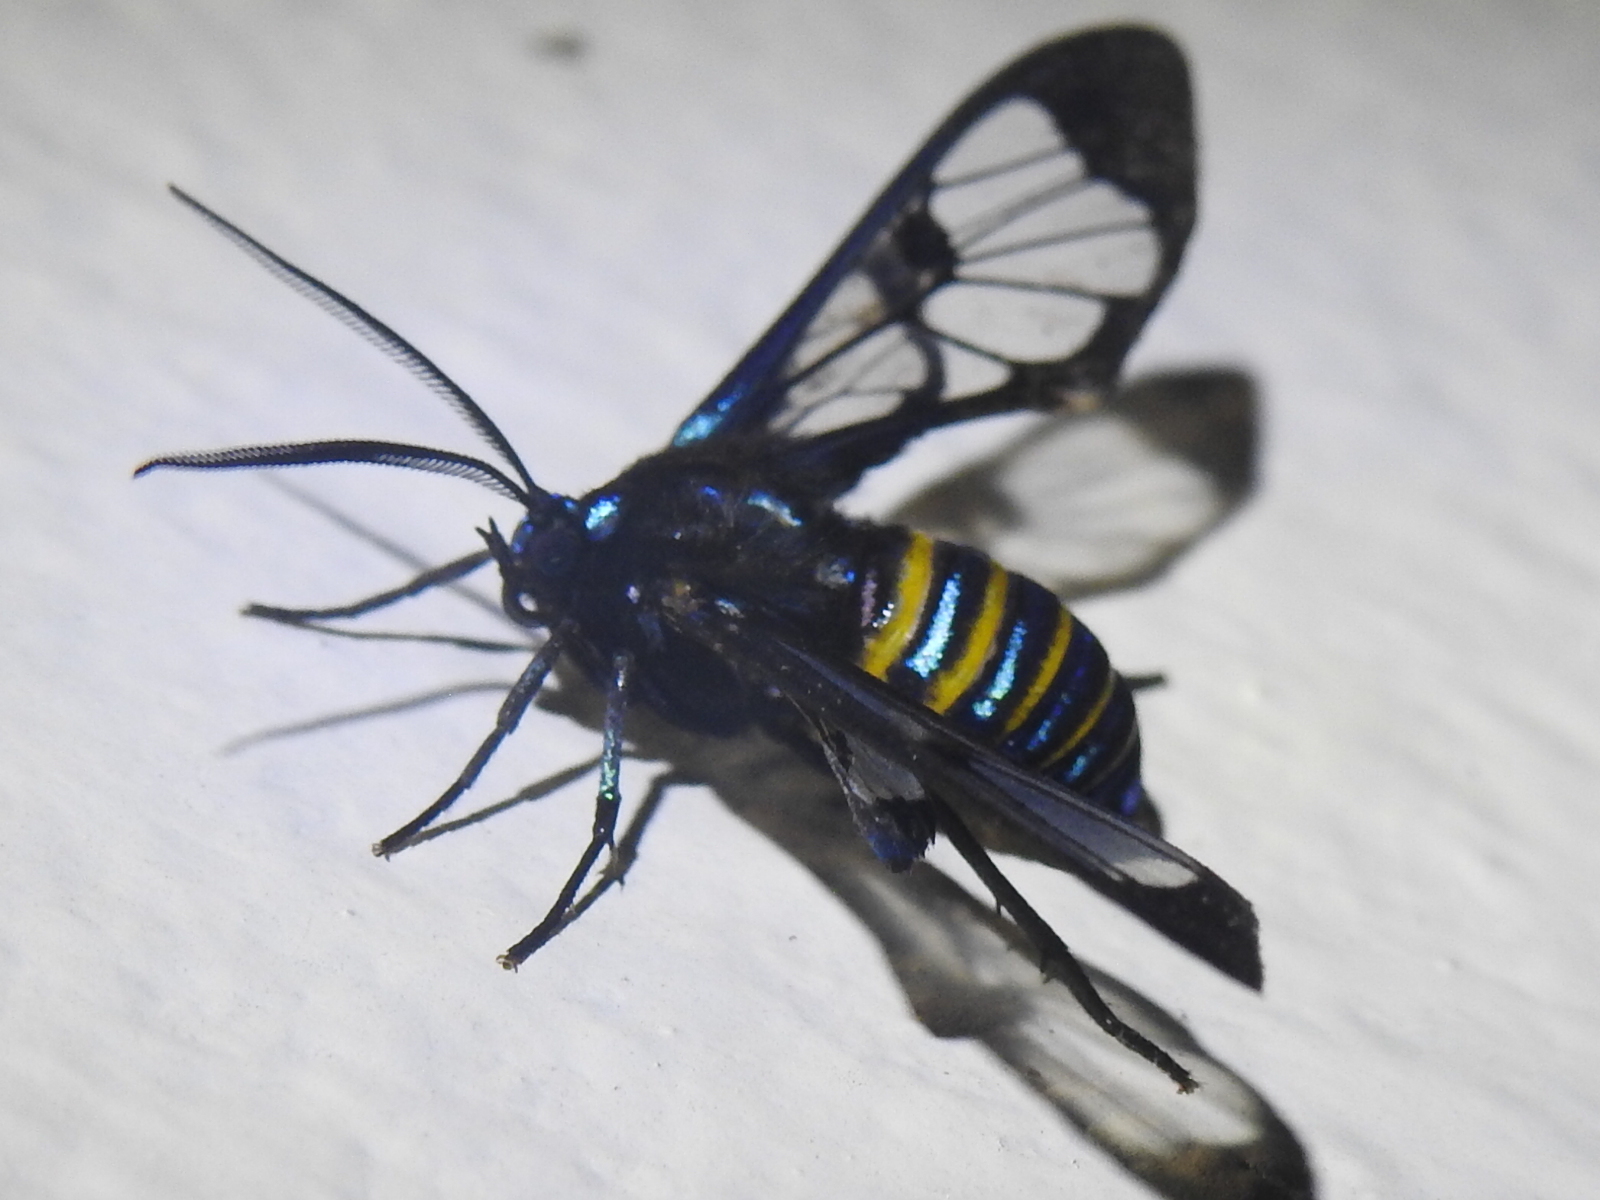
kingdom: Animalia
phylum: Arthropoda
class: Insecta
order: Lepidoptera
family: Erebidae
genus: Gymnelia
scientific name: Gymnelia nobilis
